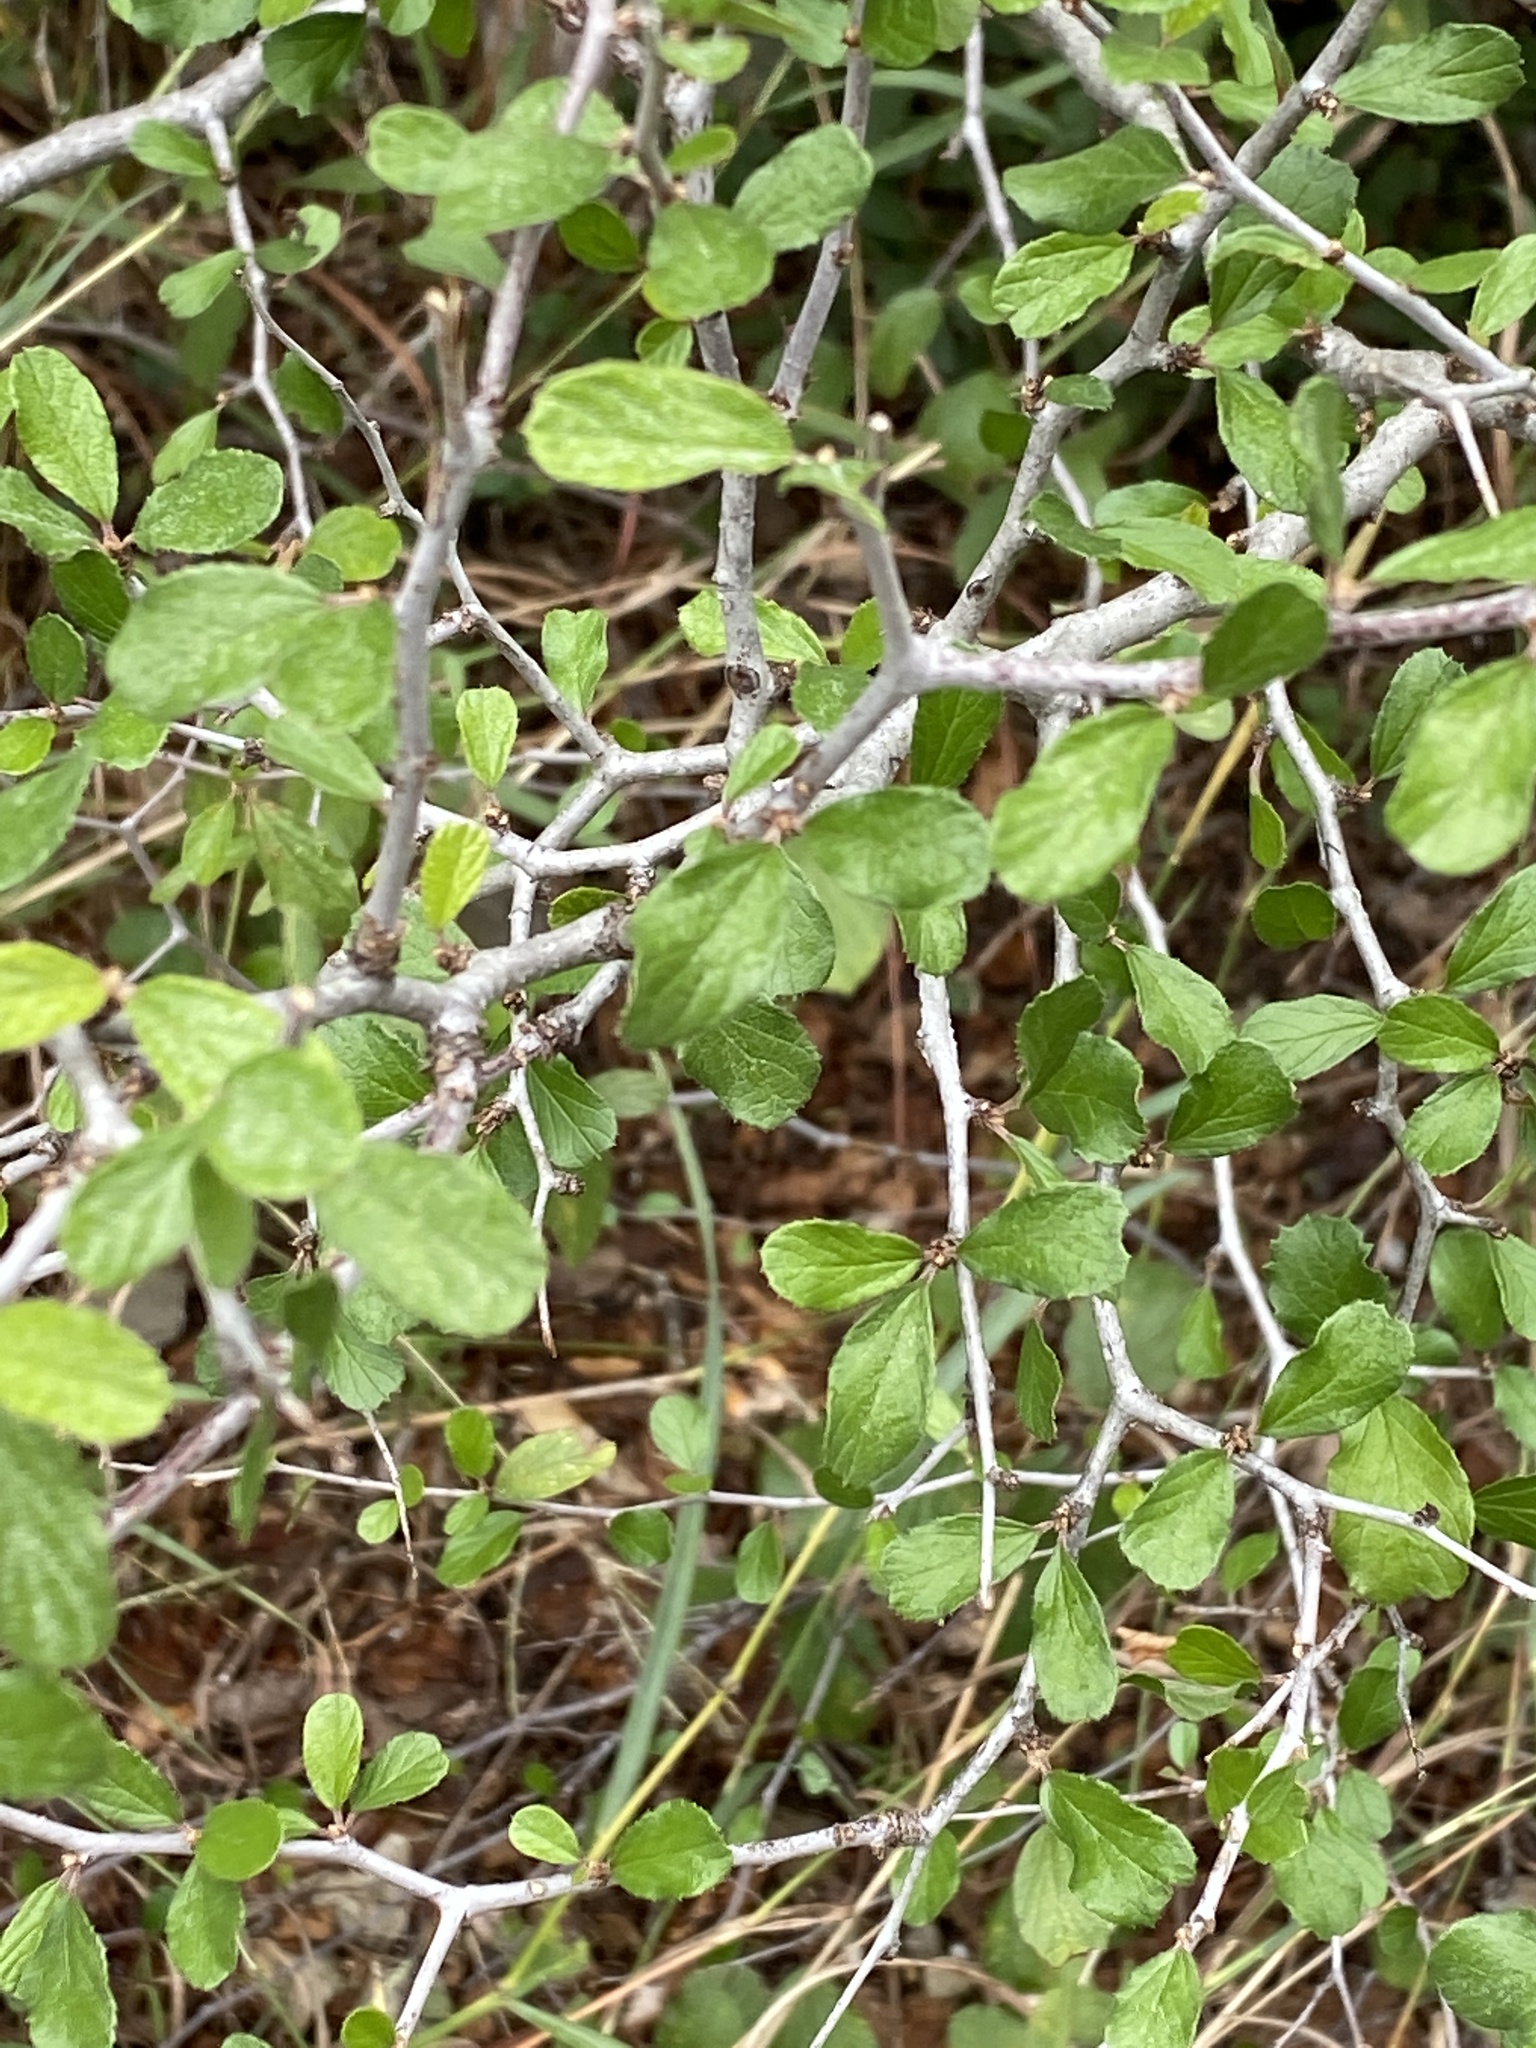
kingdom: Plantae
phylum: Tracheophyta
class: Magnoliopsida
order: Rosales
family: Rhamnaceae
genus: Colubrina
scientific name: Colubrina texensis
